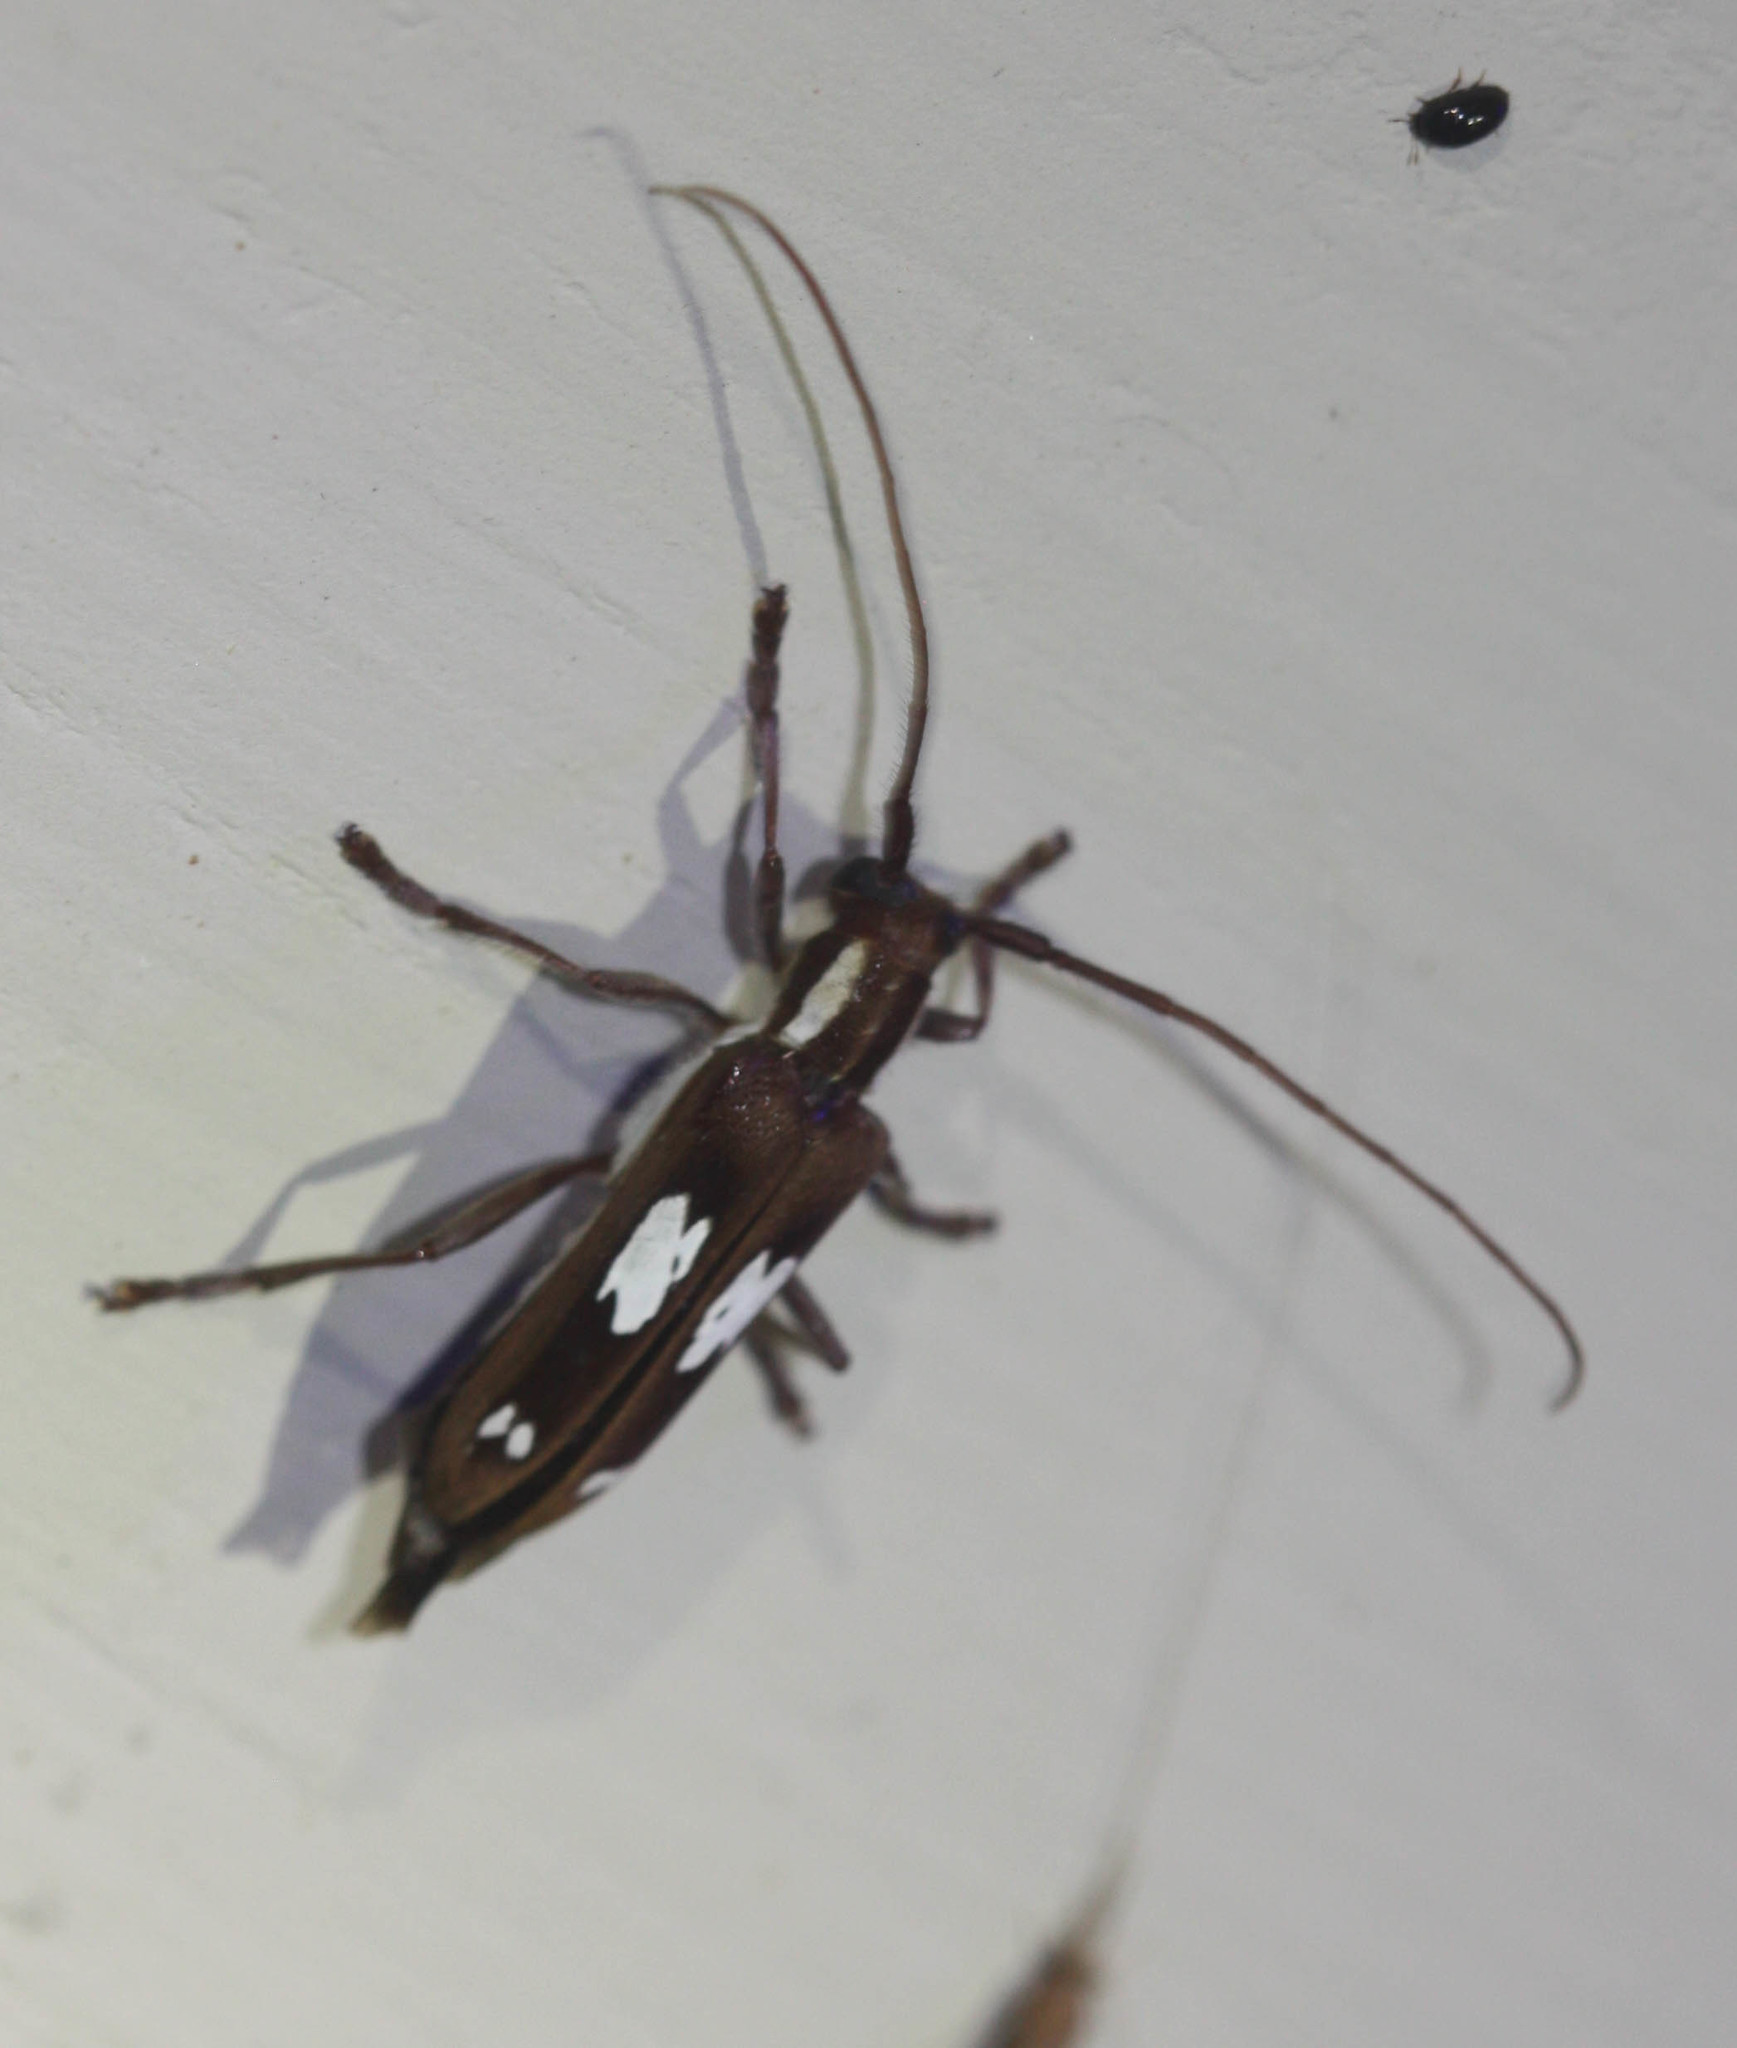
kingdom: Animalia
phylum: Arthropoda
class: Insecta
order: Coleoptera
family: Cerambycidae
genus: Saperda
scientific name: Saperda cretata
